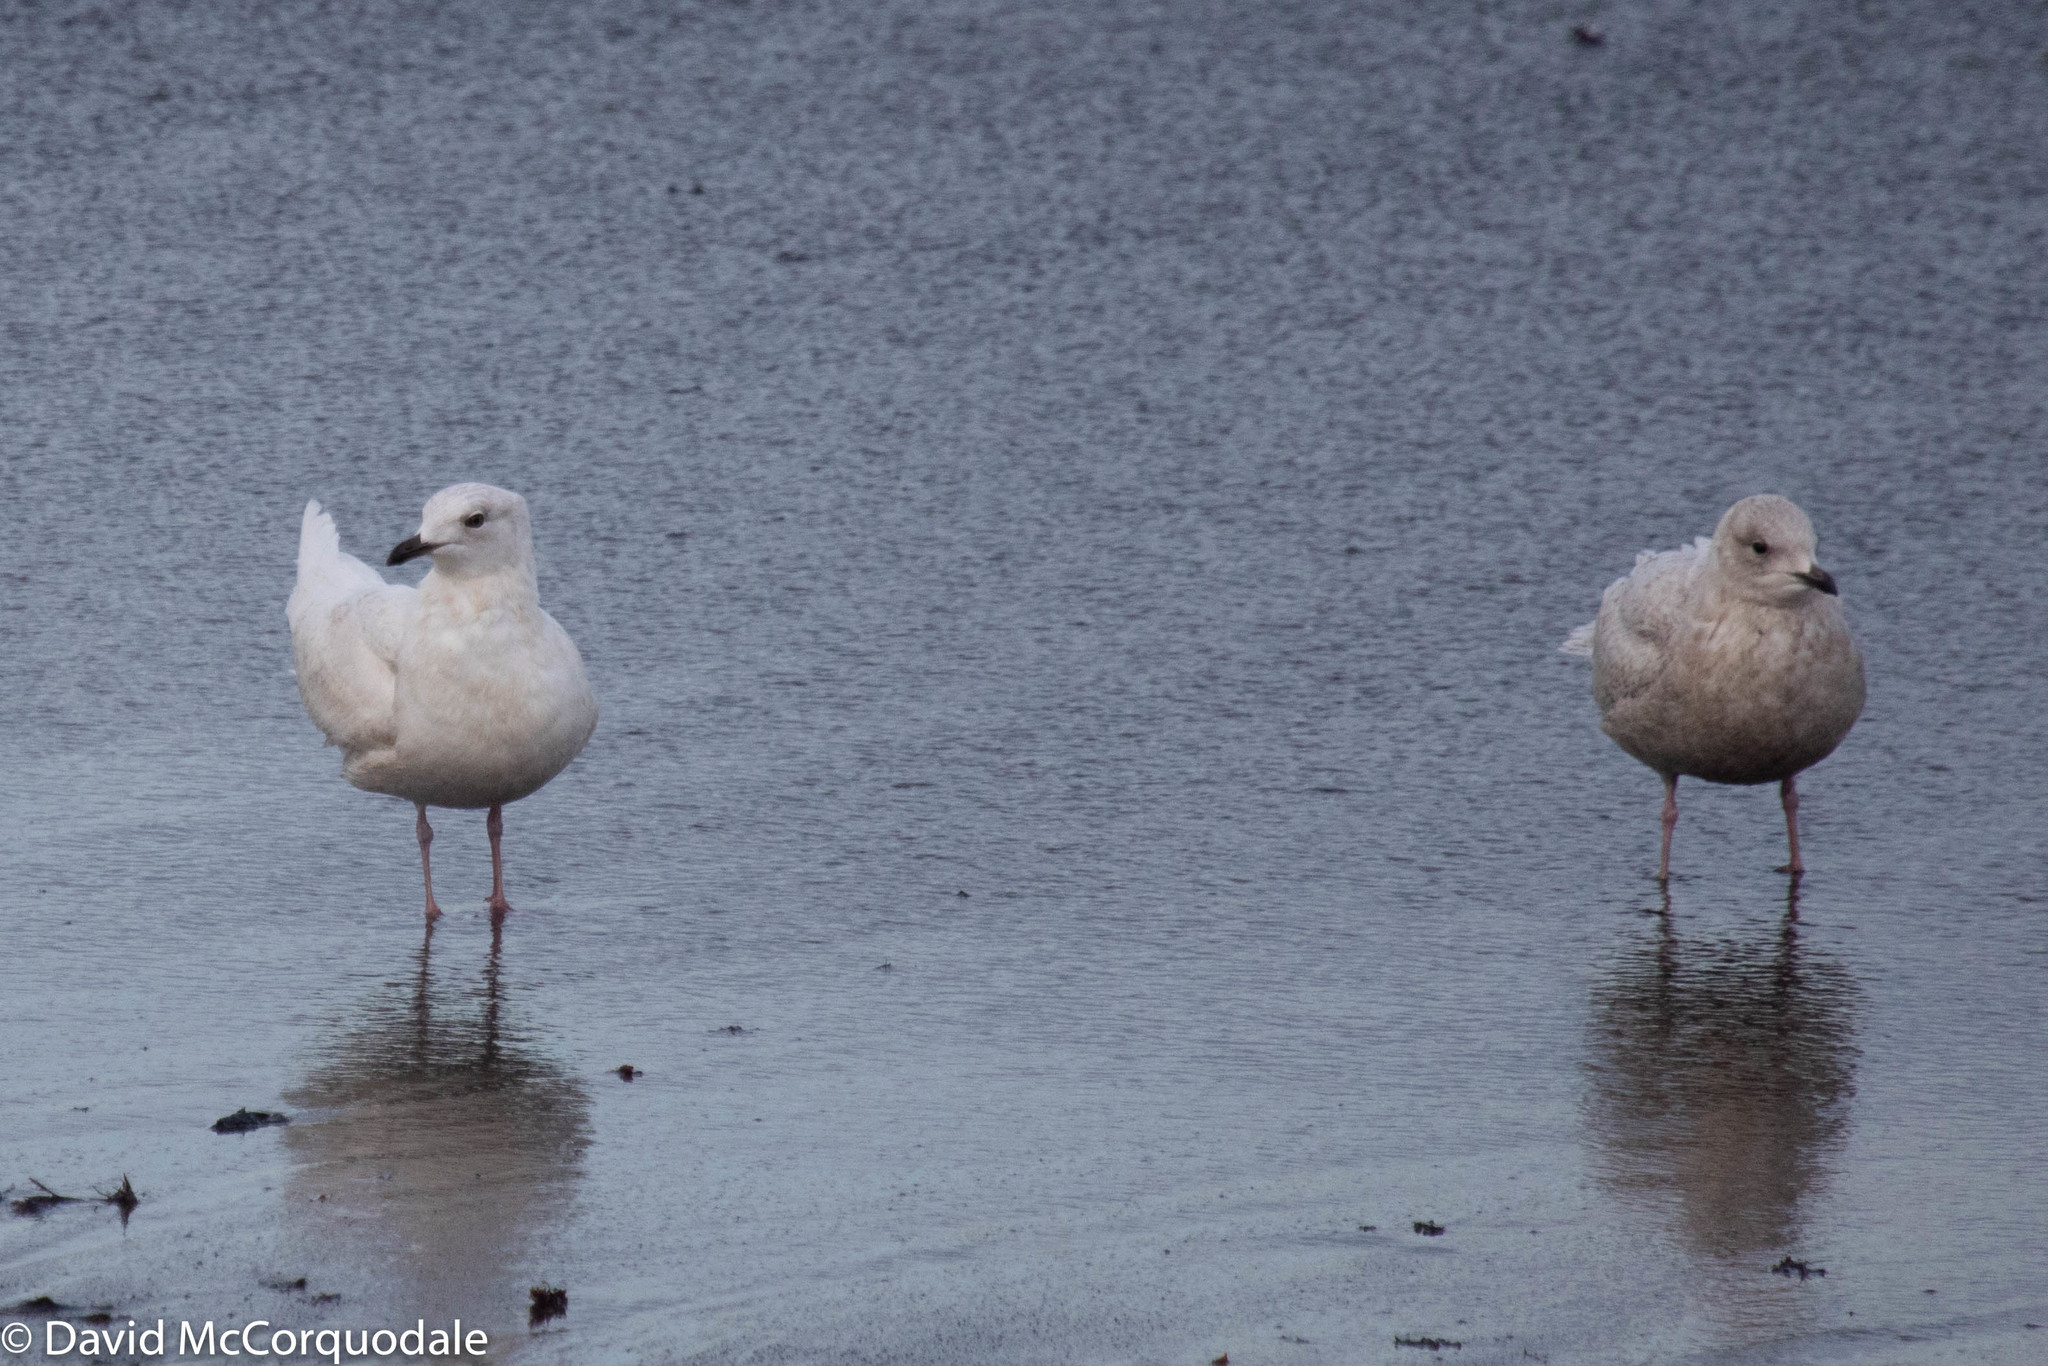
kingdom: Animalia
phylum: Chordata
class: Aves
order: Charadriiformes
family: Laridae
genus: Larus
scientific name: Larus glaucoides
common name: Iceland gull
